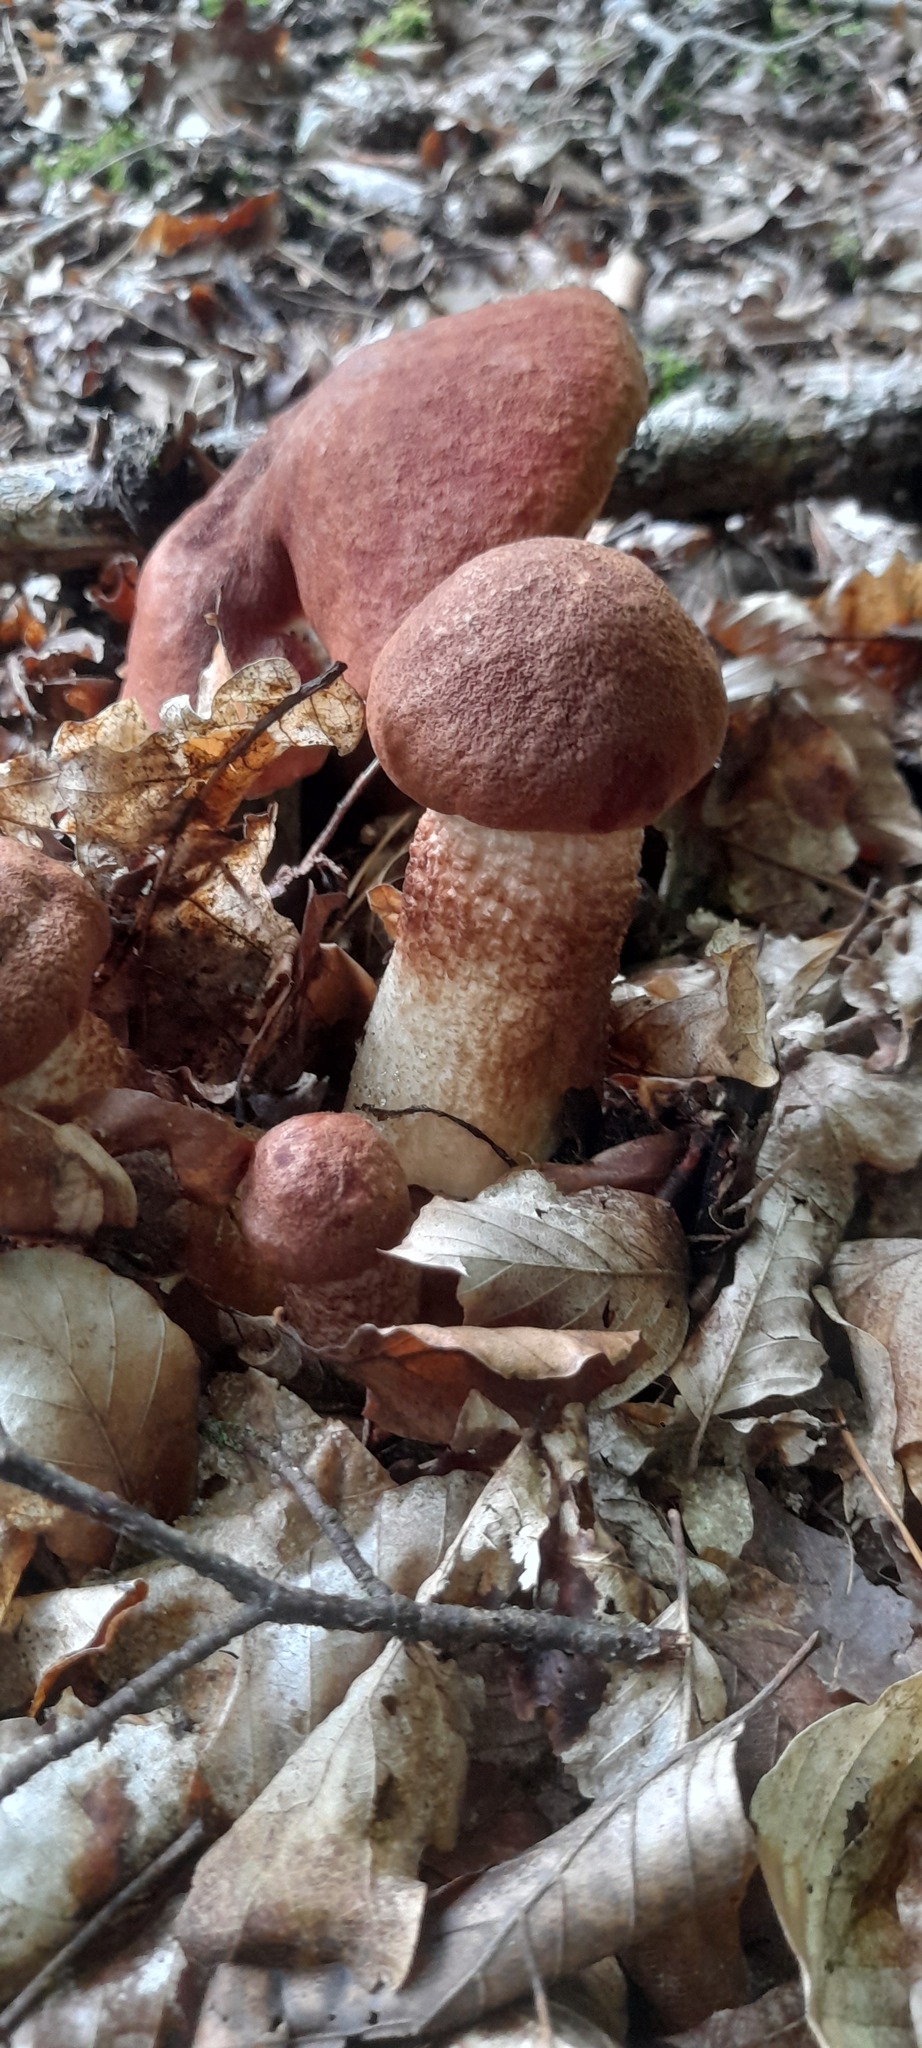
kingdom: Fungi
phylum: Basidiomycota
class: Agaricomycetes
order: Boletales
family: Boletaceae
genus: Leccinum
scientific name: Leccinum aurantiacum
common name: Orange bolete
